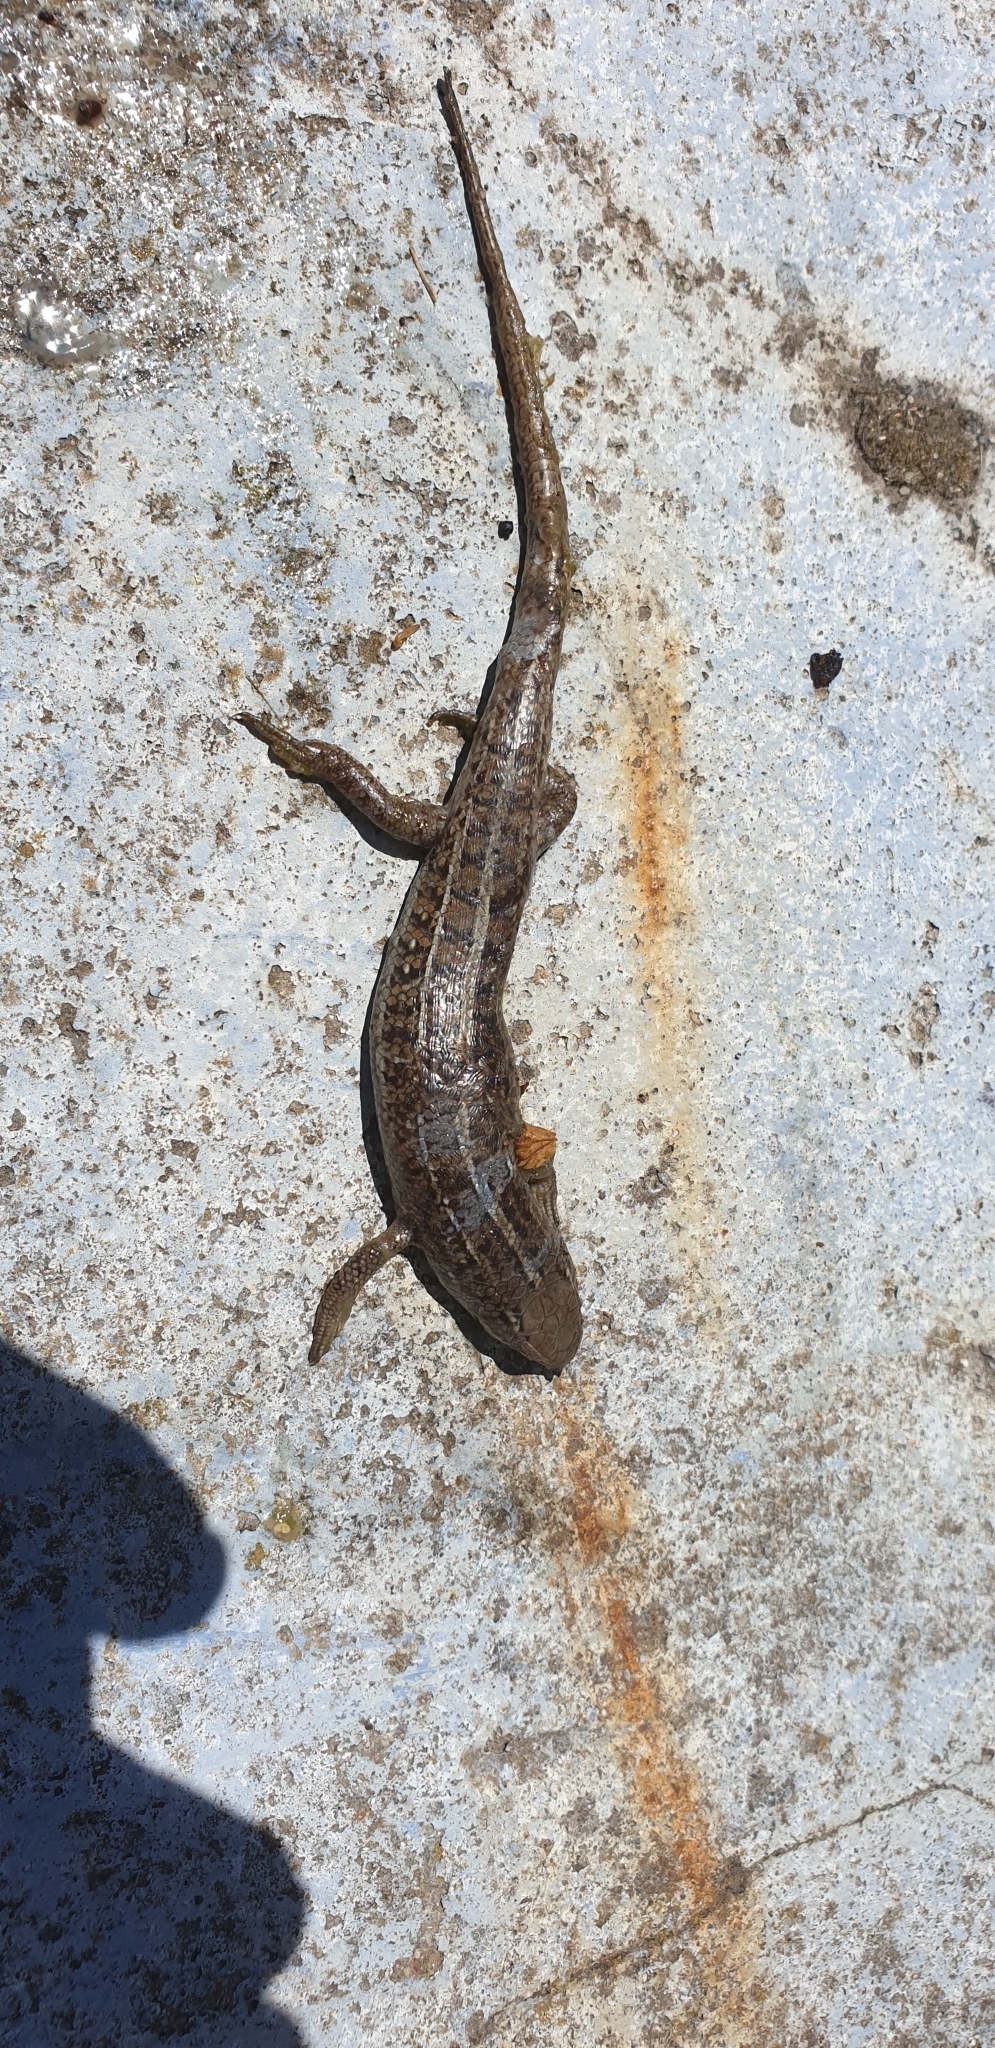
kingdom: Animalia
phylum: Chordata
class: Squamata
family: Scincidae
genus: Trachylepis
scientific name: Trachylepis capensis
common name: Cape skink
